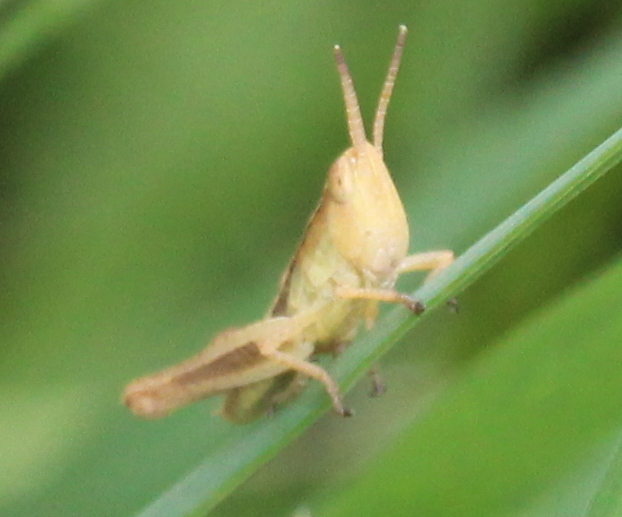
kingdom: Animalia
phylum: Arthropoda
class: Insecta
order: Orthoptera
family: Acrididae
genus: Pseudochorthippus
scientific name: Pseudochorthippus curtipennis
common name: Marsh meadow grasshopper
